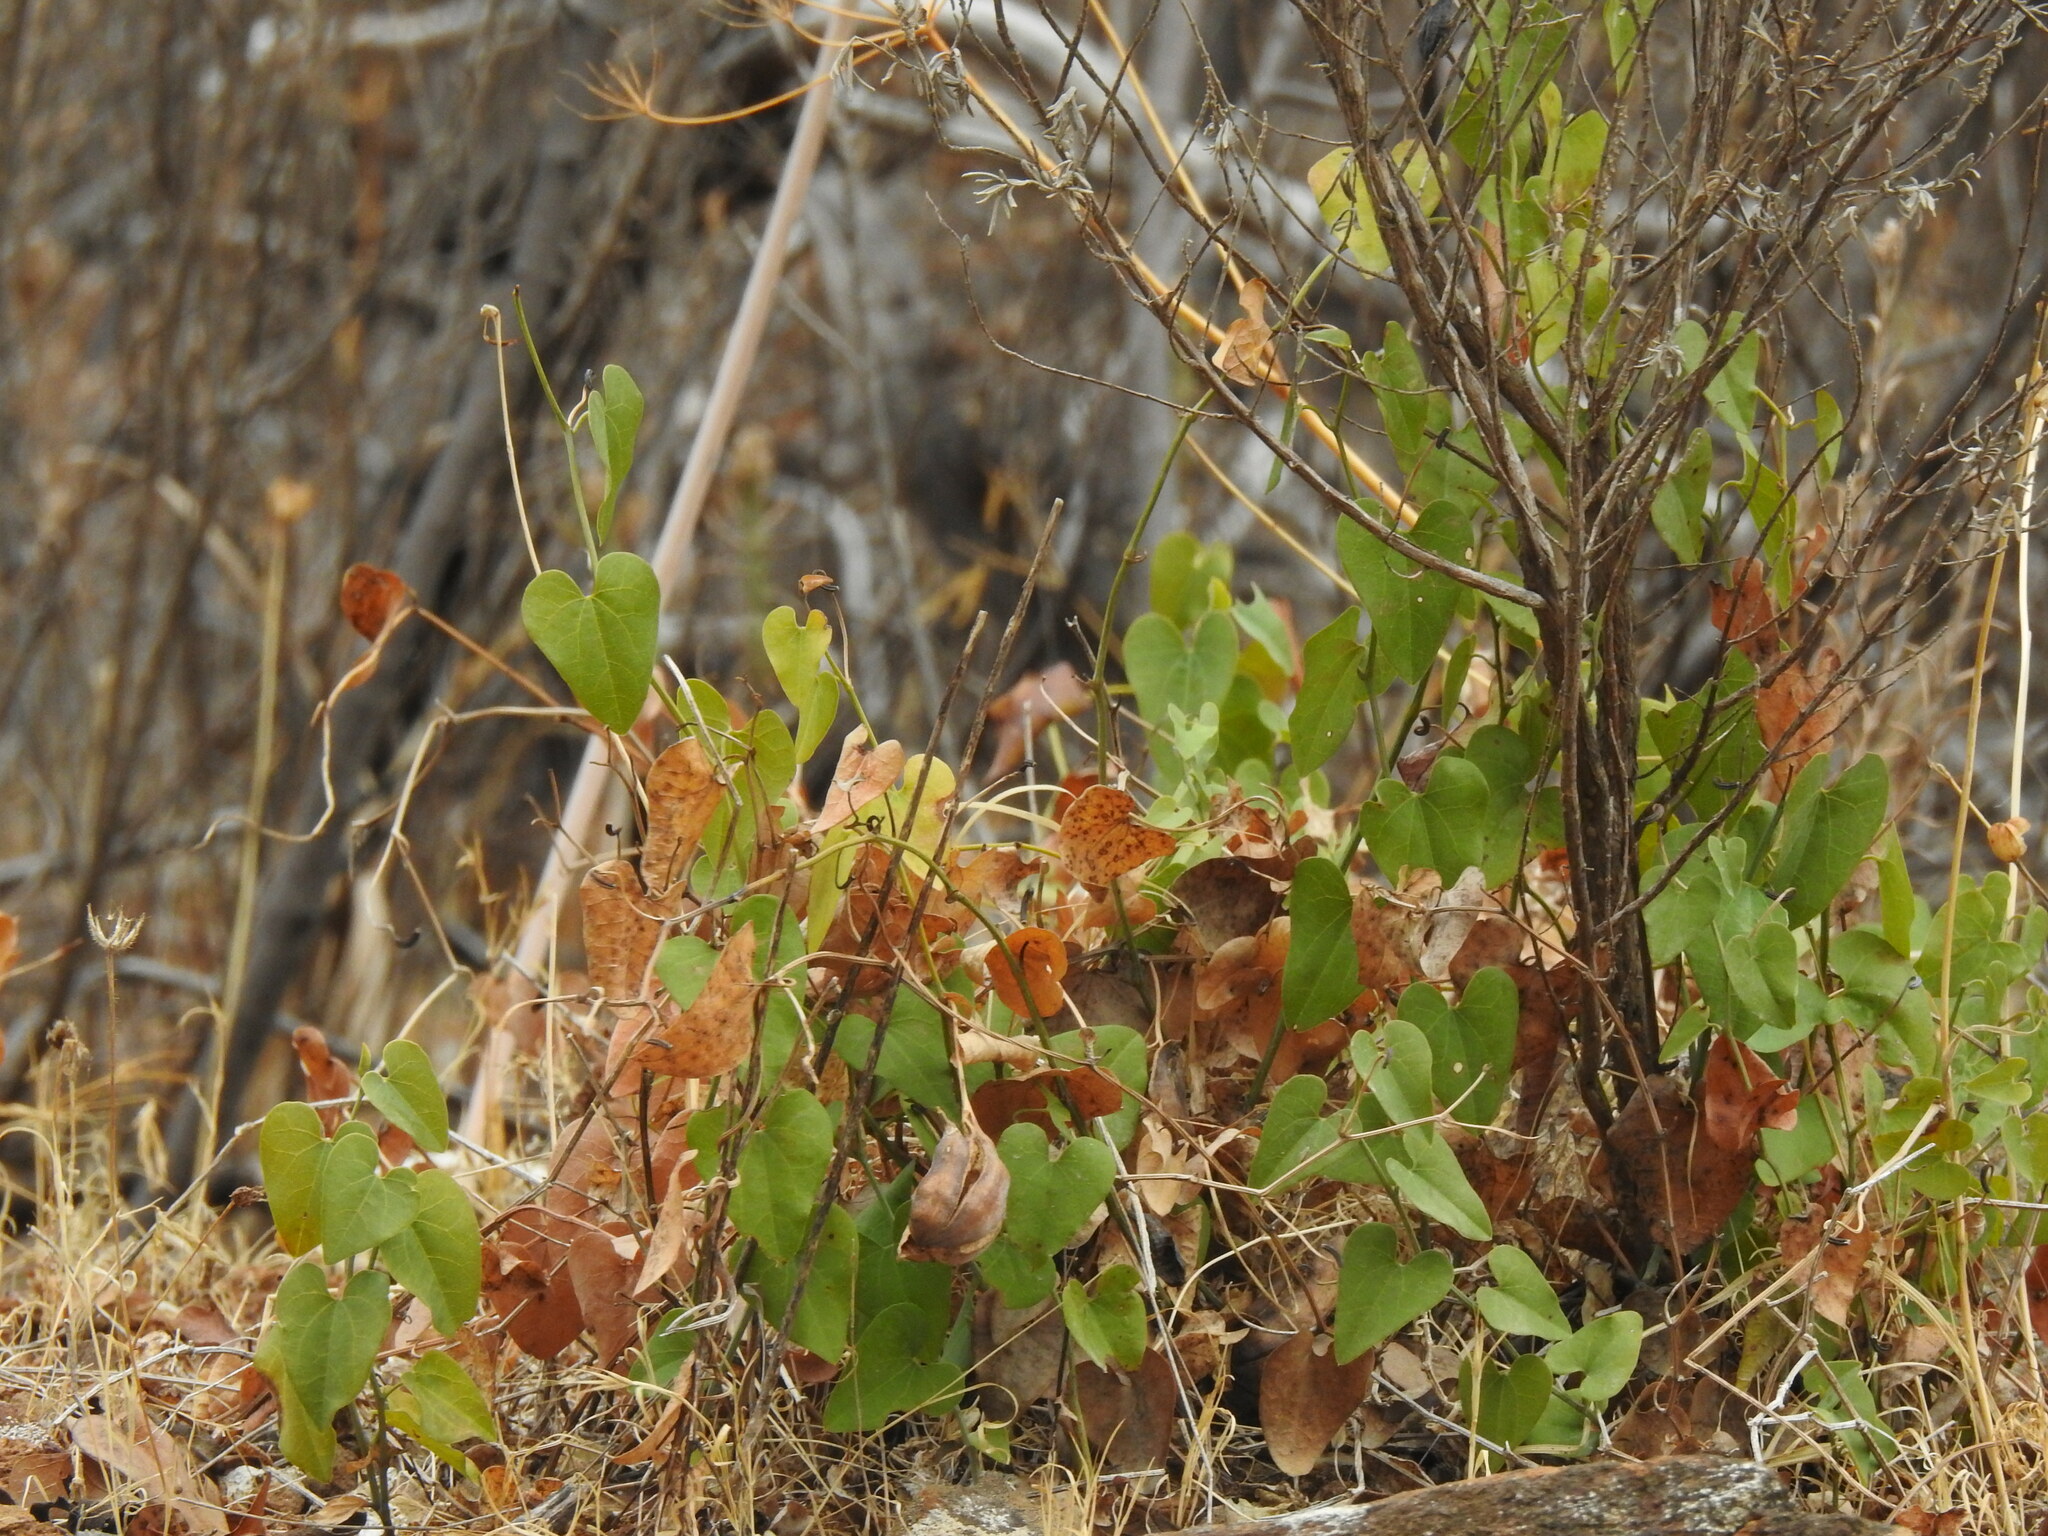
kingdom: Plantae
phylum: Tracheophyta
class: Magnoliopsida
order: Piperales
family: Aristolochiaceae
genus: Aristolochia
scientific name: Aristolochia baetica
